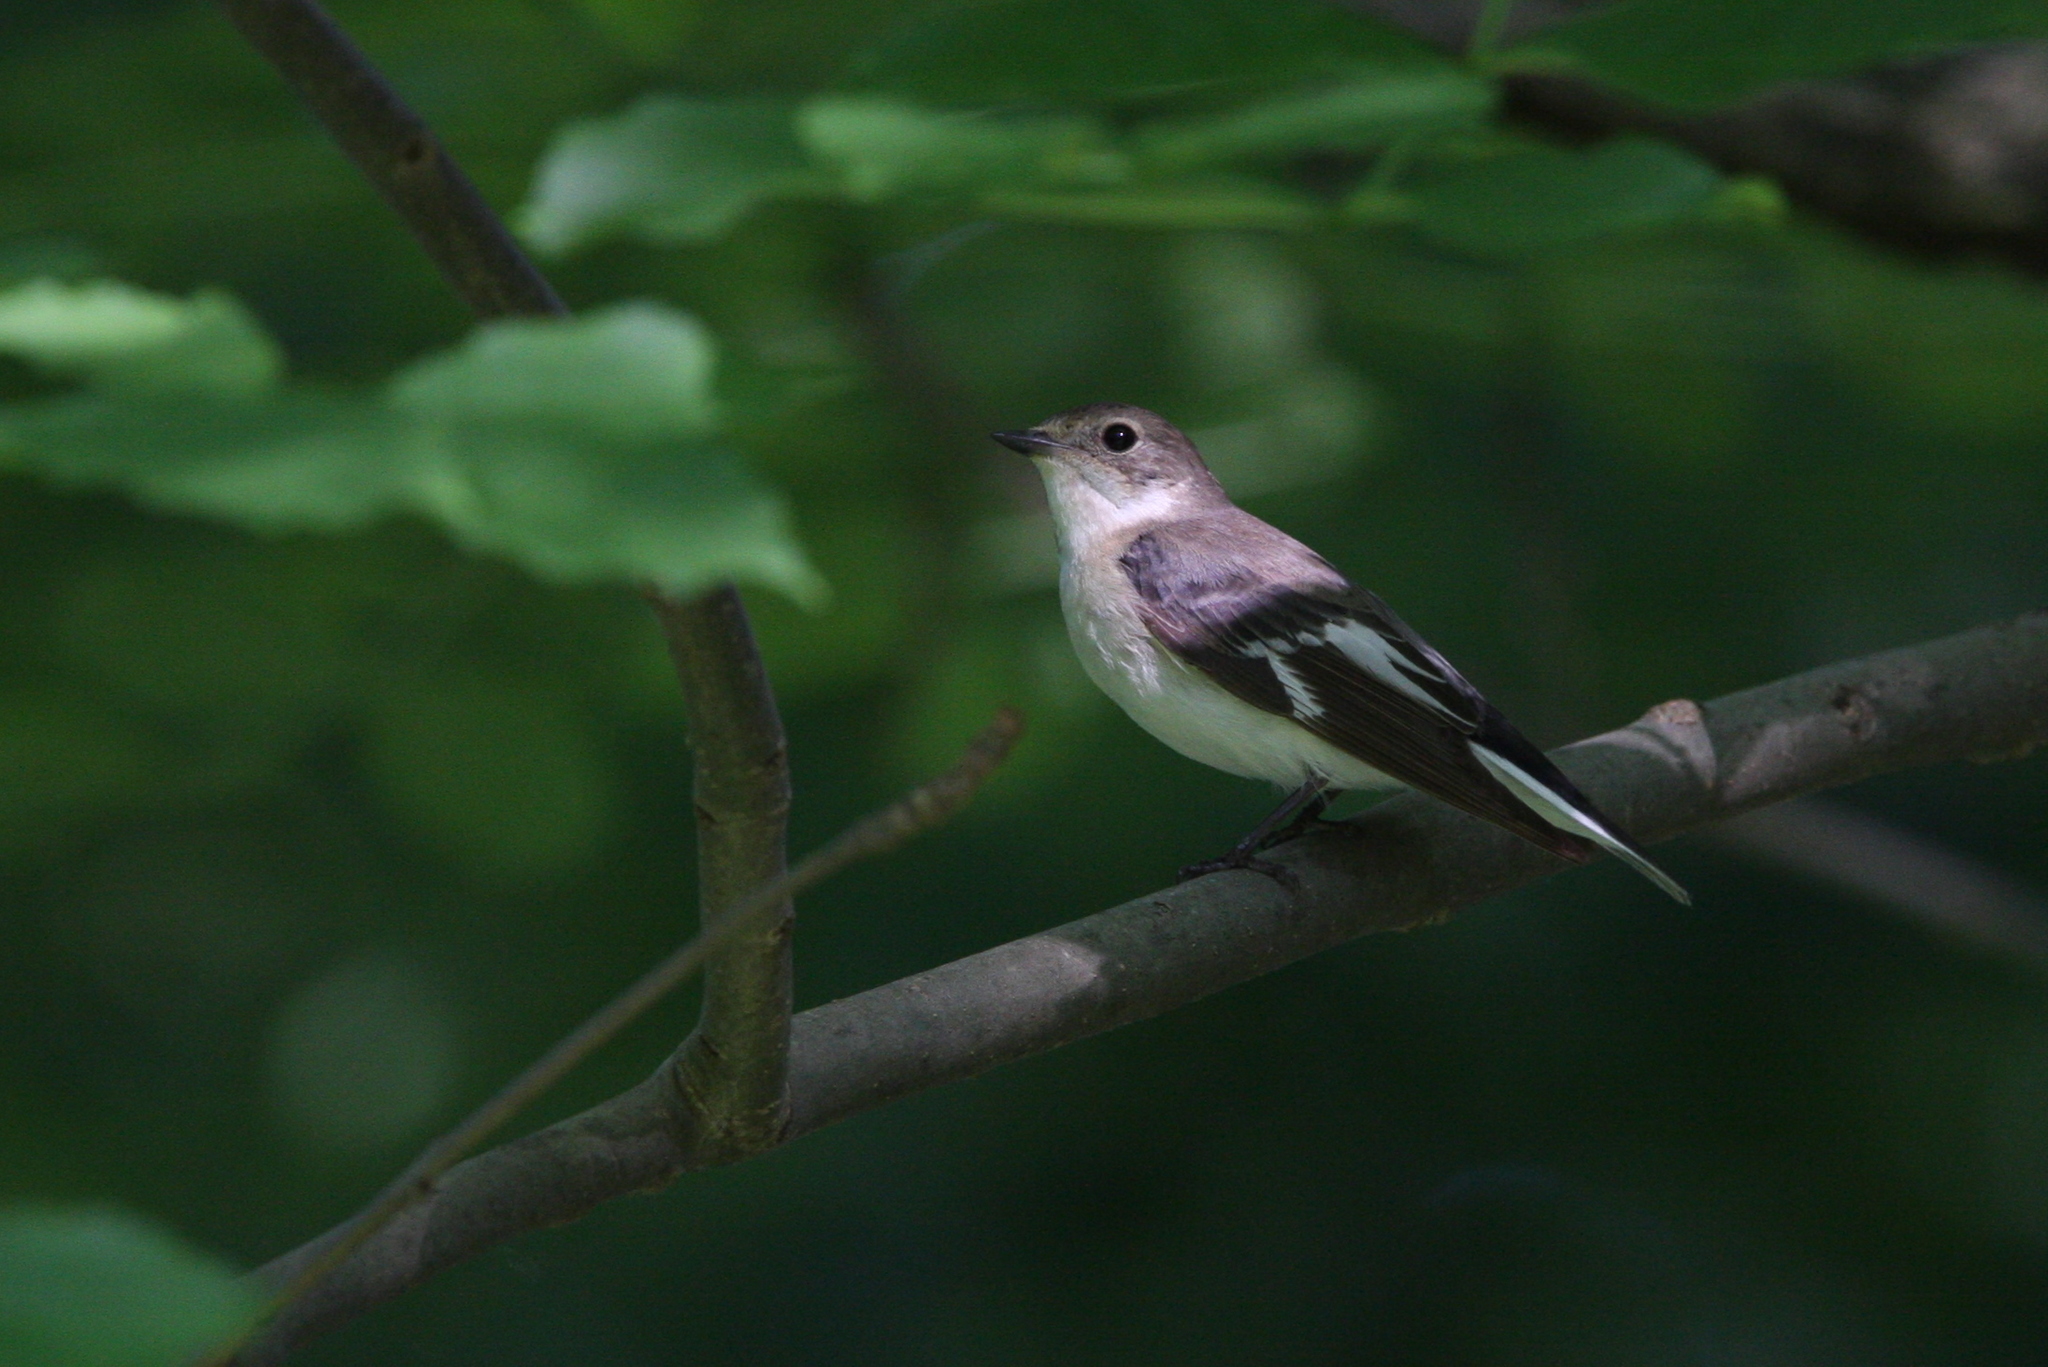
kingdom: Animalia
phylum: Chordata
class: Aves
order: Passeriformes
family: Muscicapidae
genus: Ficedula
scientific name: Ficedula albicollis
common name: Collared flycatcher
